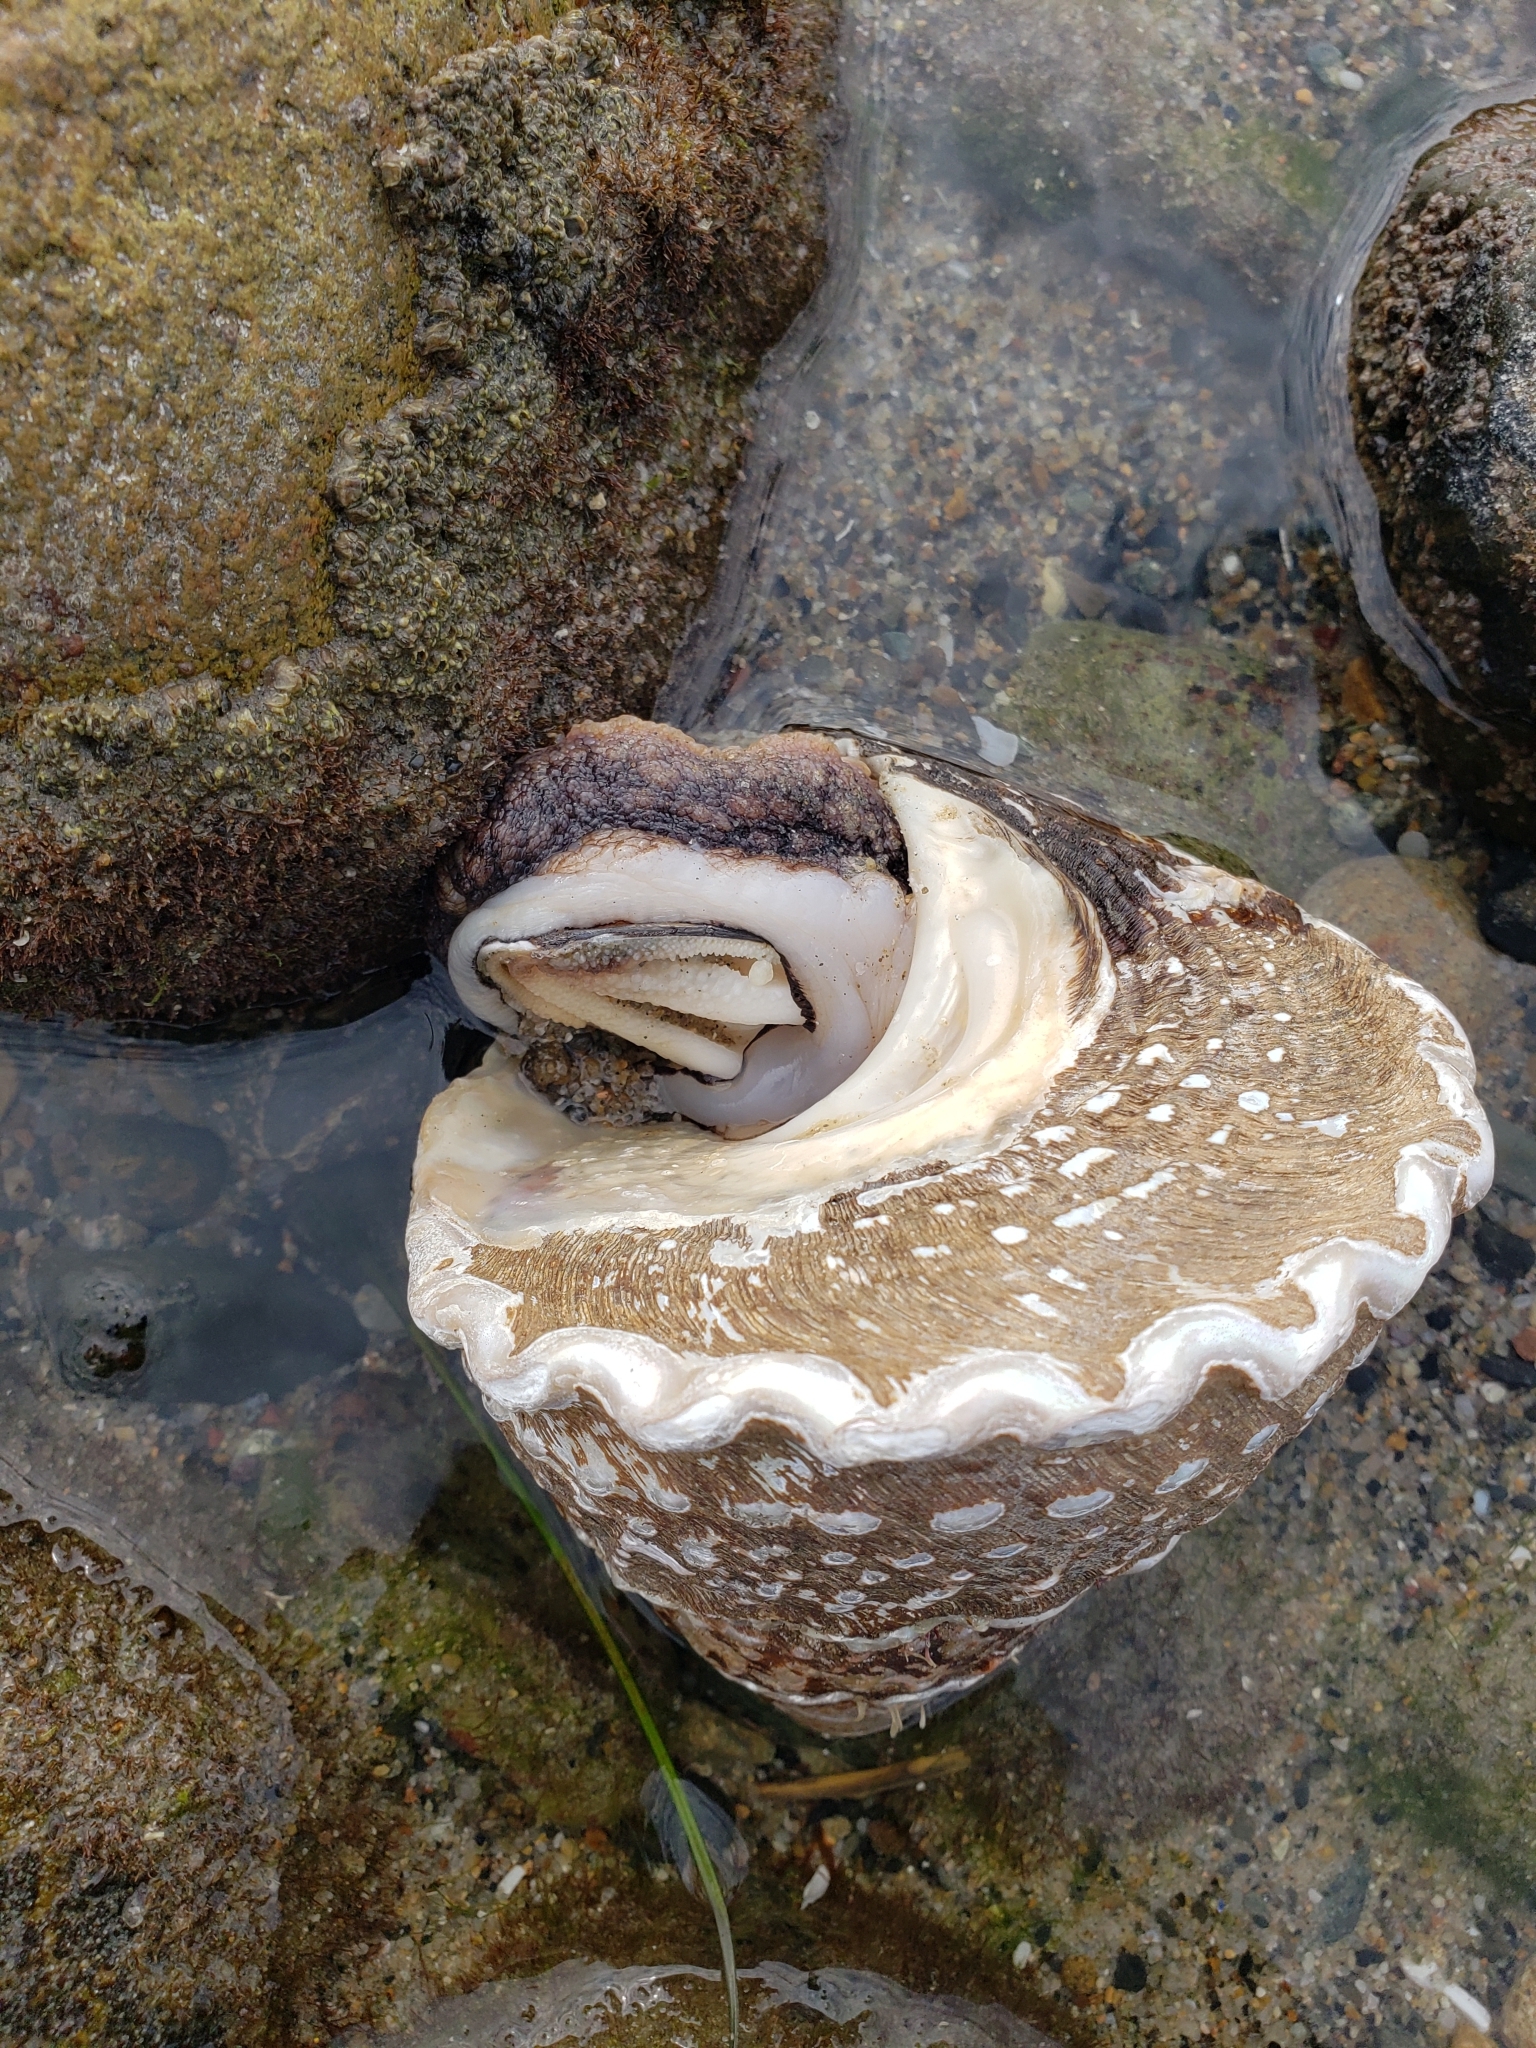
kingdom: Animalia
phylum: Mollusca
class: Gastropoda
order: Trochida
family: Turbinidae
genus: Megastraea
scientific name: Megastraea undosa
